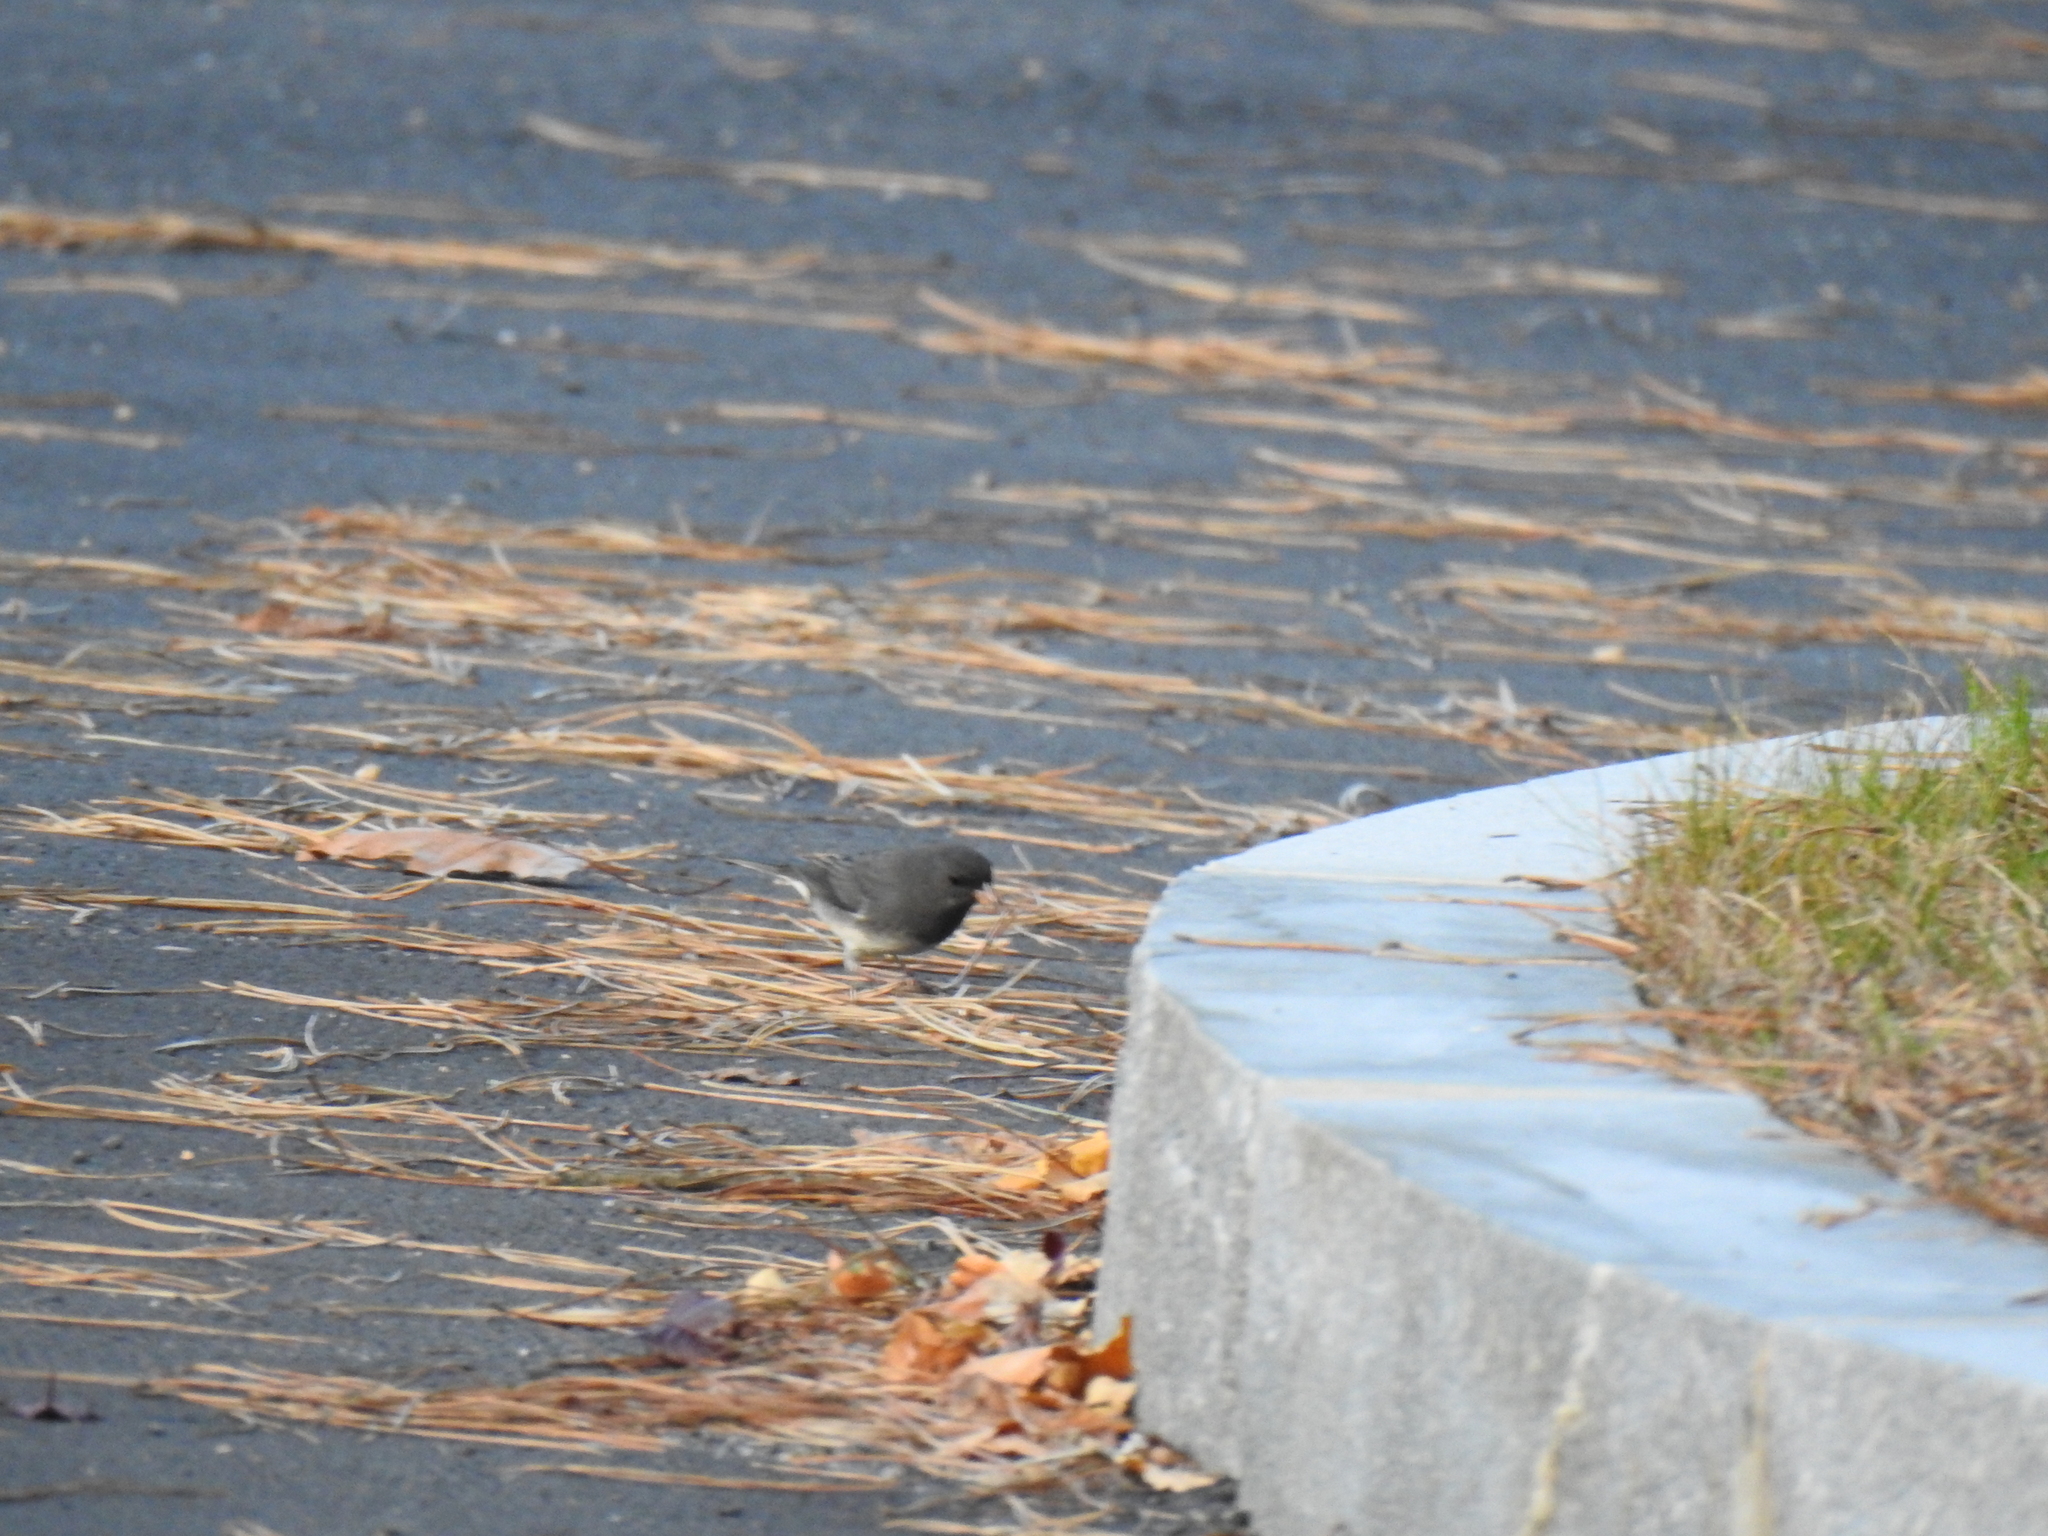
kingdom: Animalia
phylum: Chordata
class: Aves
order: Passeriformes
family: Passerellidae
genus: Junco
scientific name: Junco hyemalis
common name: Dark-eyed junco
